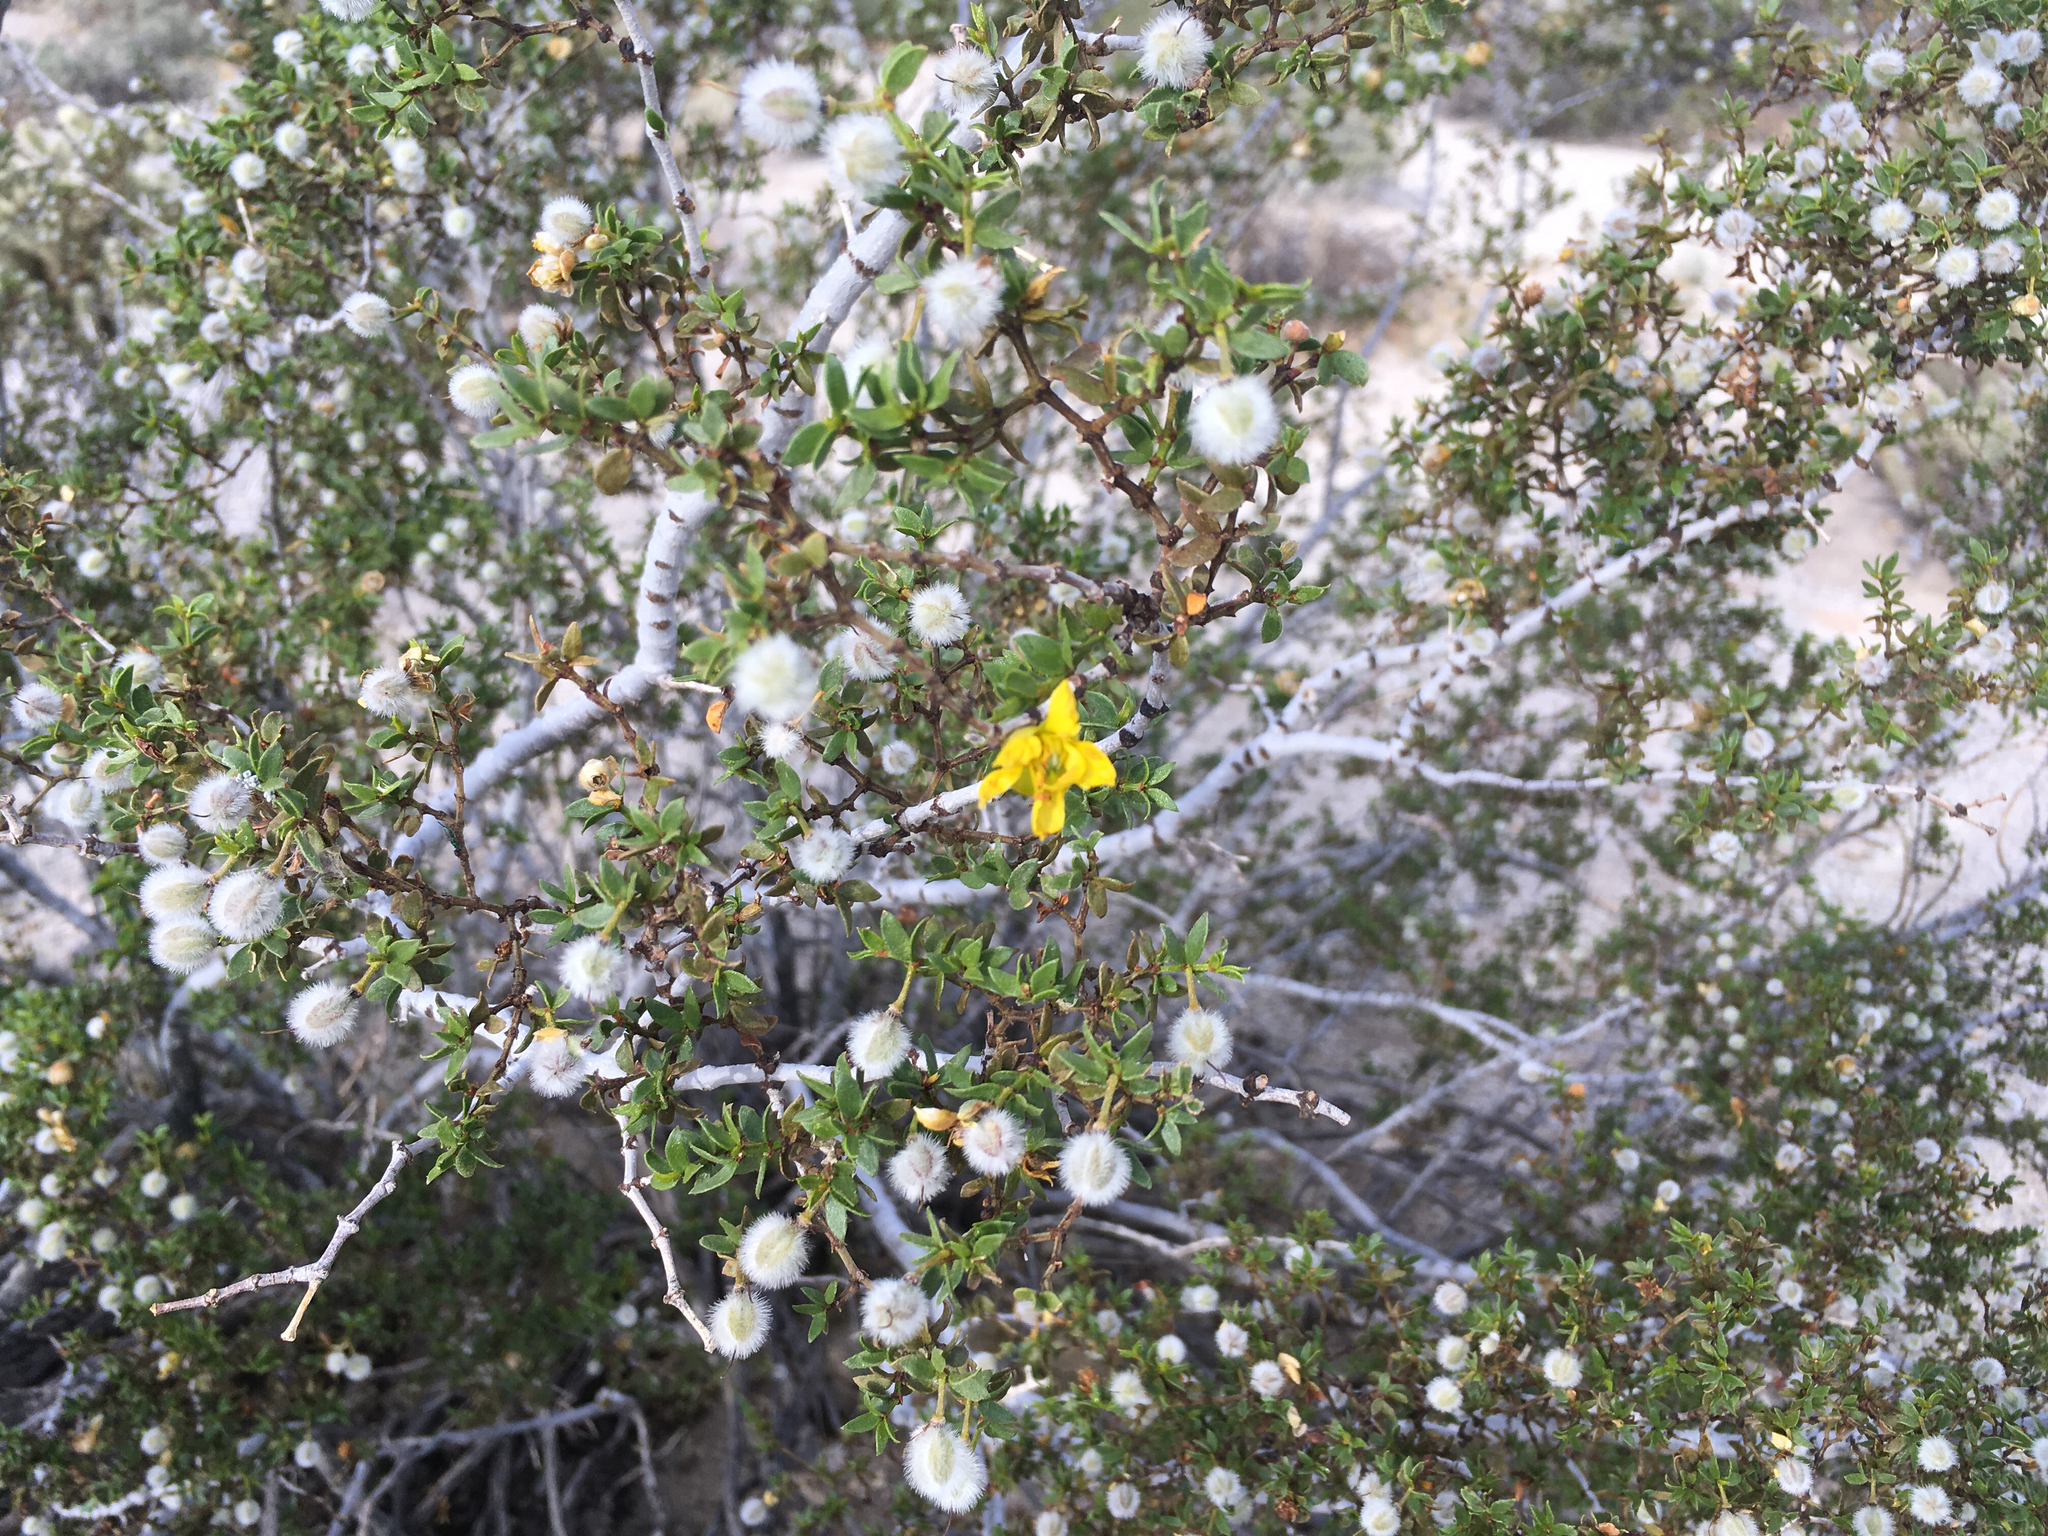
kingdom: Plantae
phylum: Tracheophyta
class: Magnoliopsida
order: Zygophyllales
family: Zygophyllaceae
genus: Larrea
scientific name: Larrea tridentata
